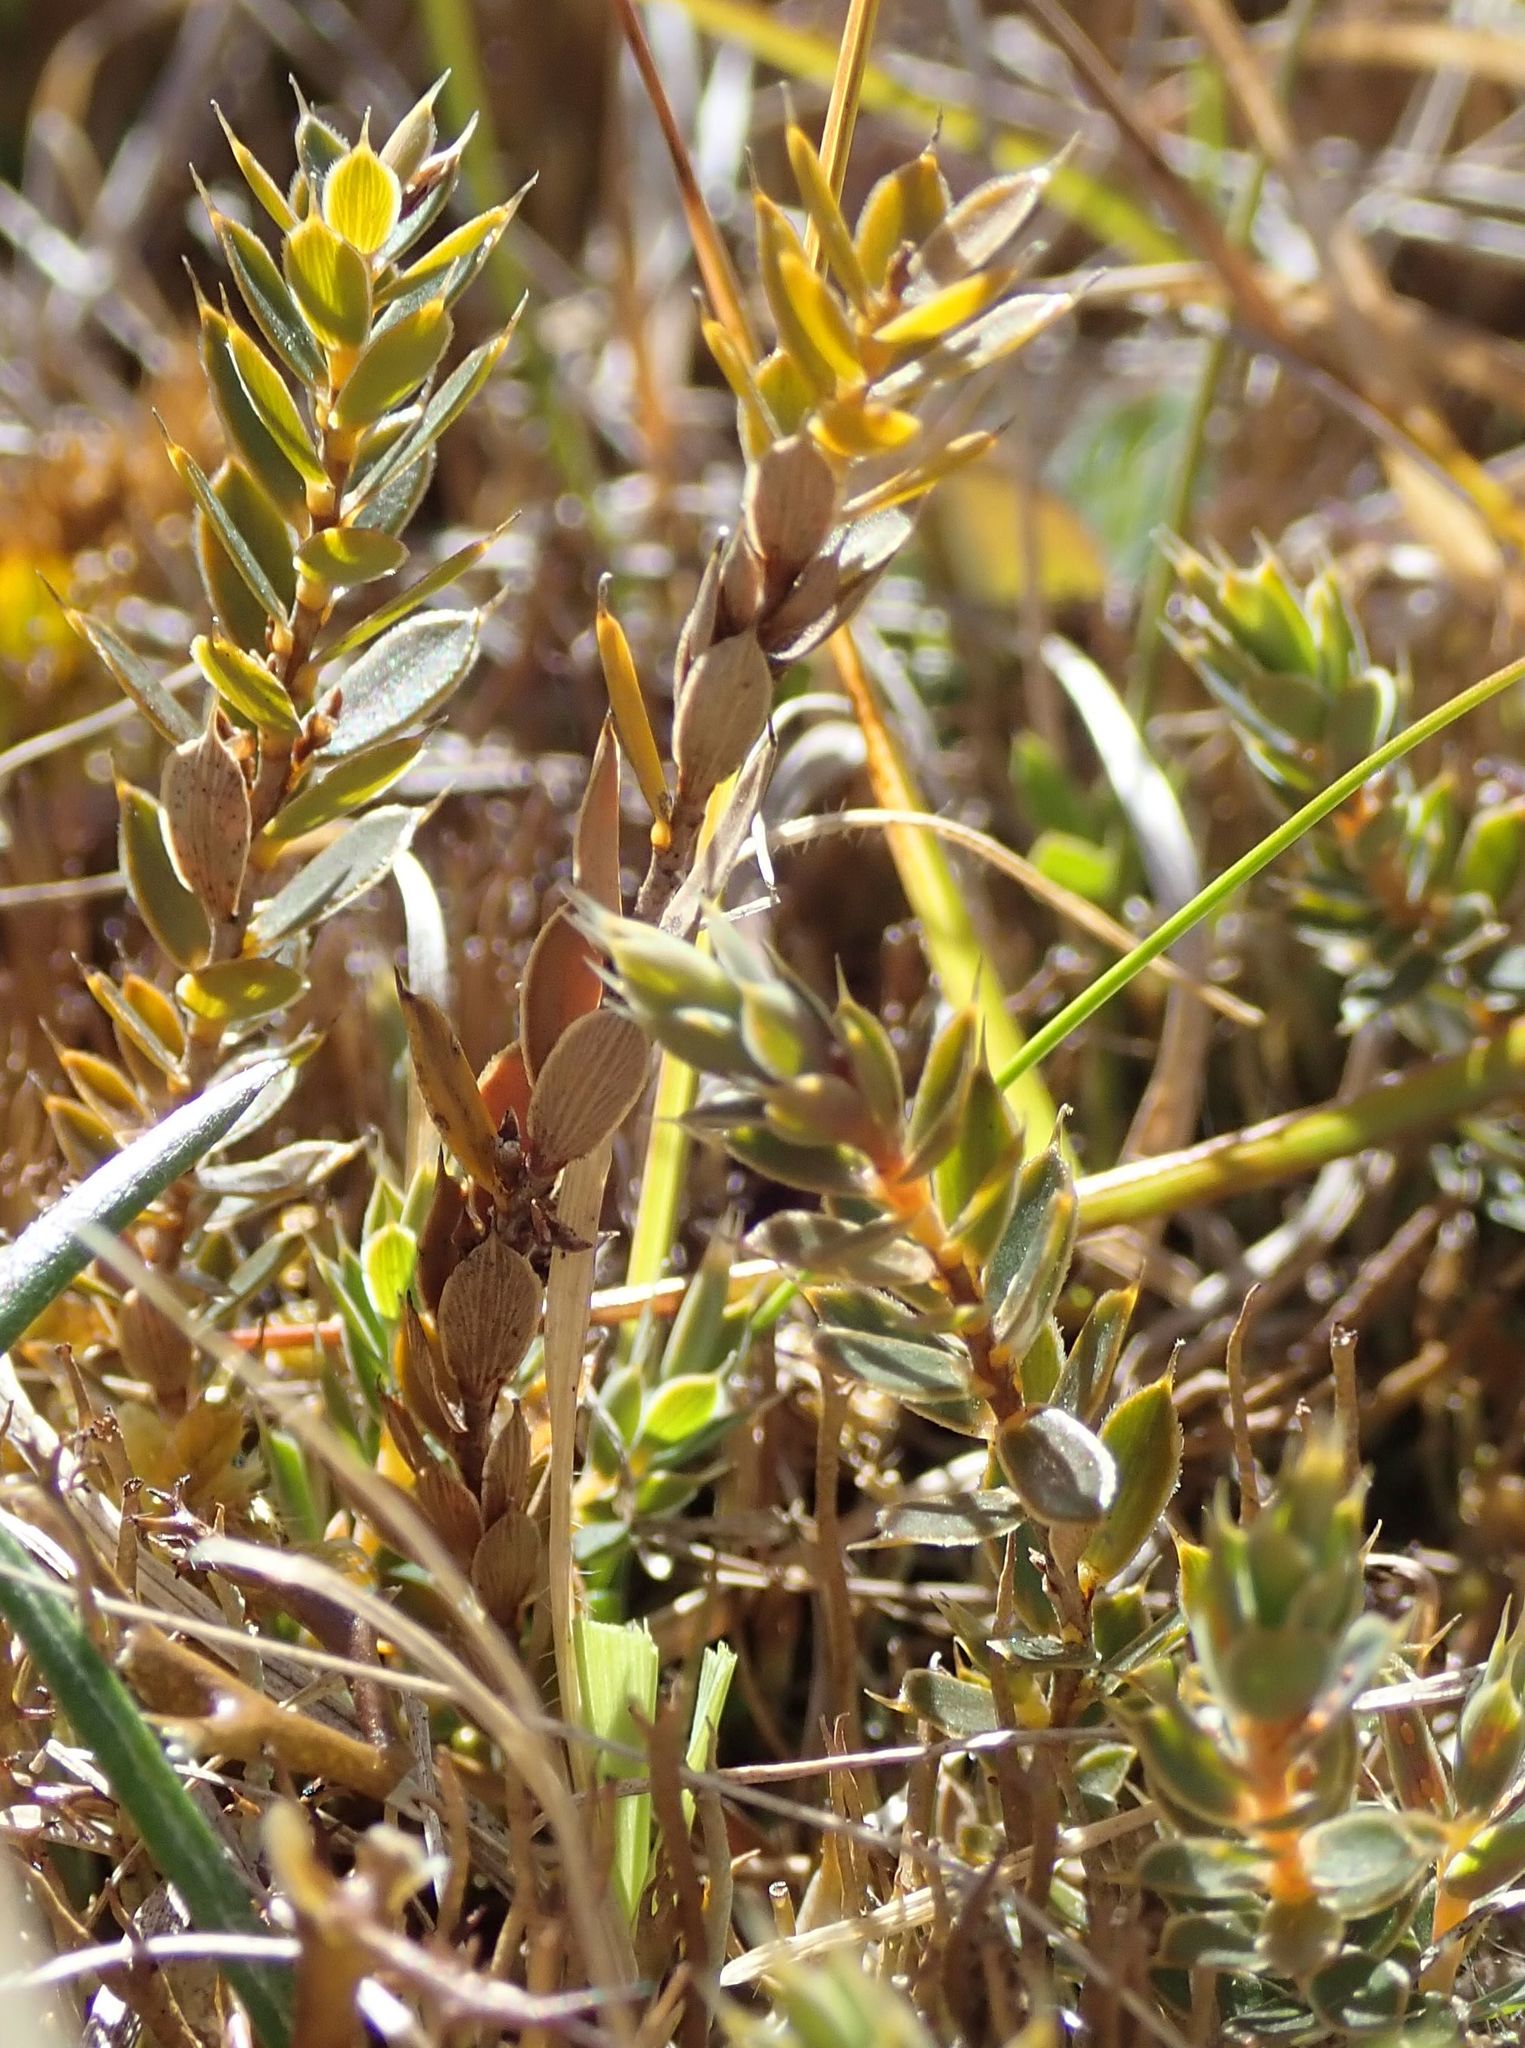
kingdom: Plantae
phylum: Tracheophyta
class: Magnoliopsida
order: Ericales
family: Ericaceae
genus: Styphelia
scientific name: Styphelia nesophila
